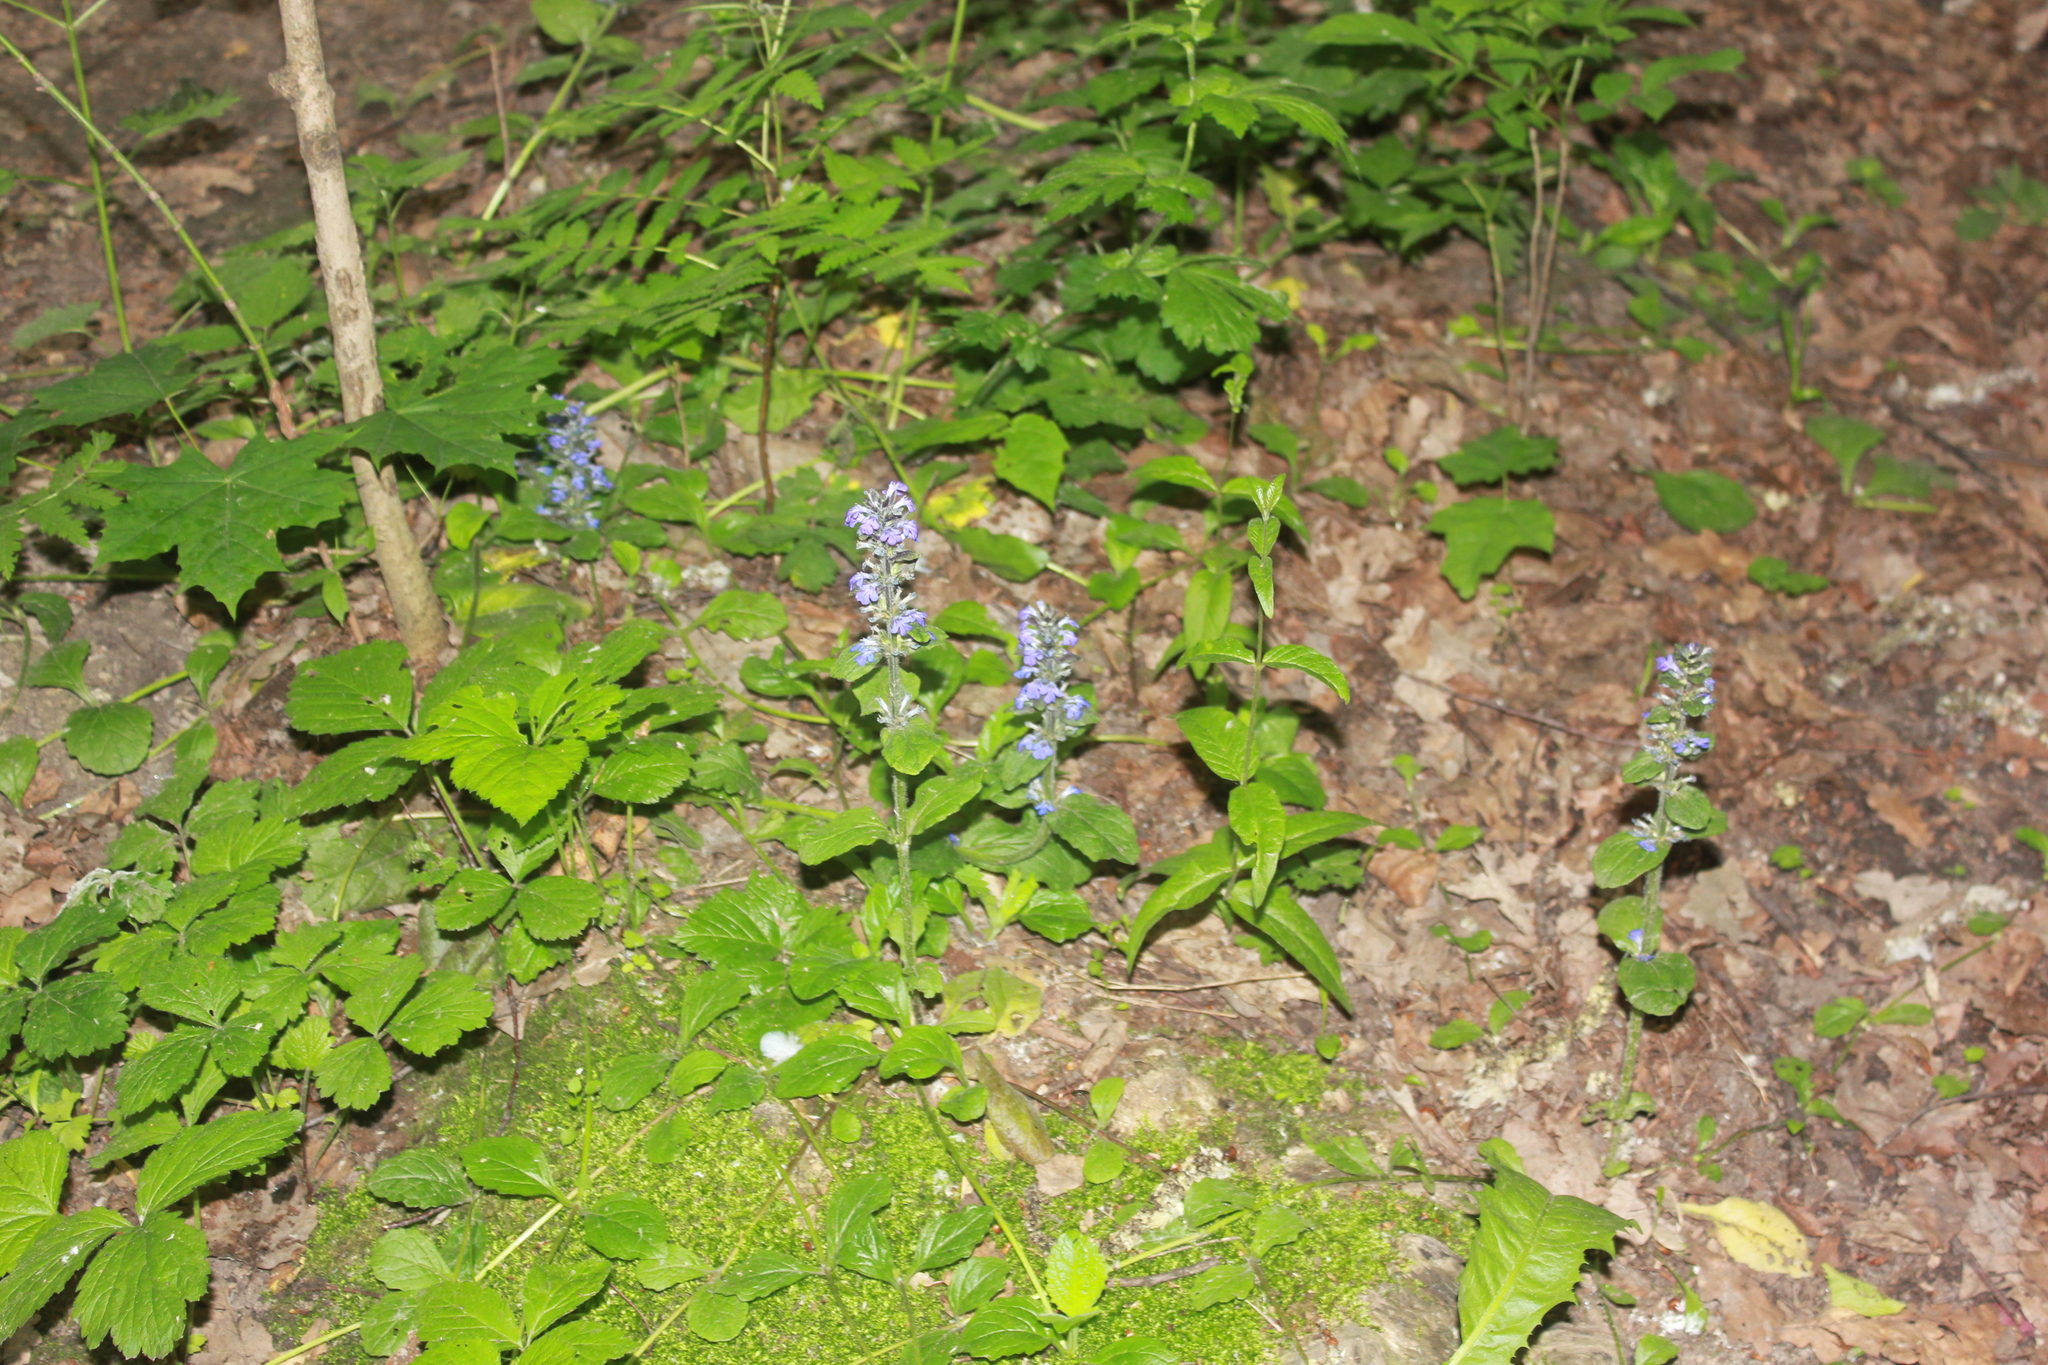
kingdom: Plantae
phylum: Tracheophyta
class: Magnoliopsida
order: Lamiales
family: Lamiaceae
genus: Ajuga
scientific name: Ajuga reptans
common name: Bugle
